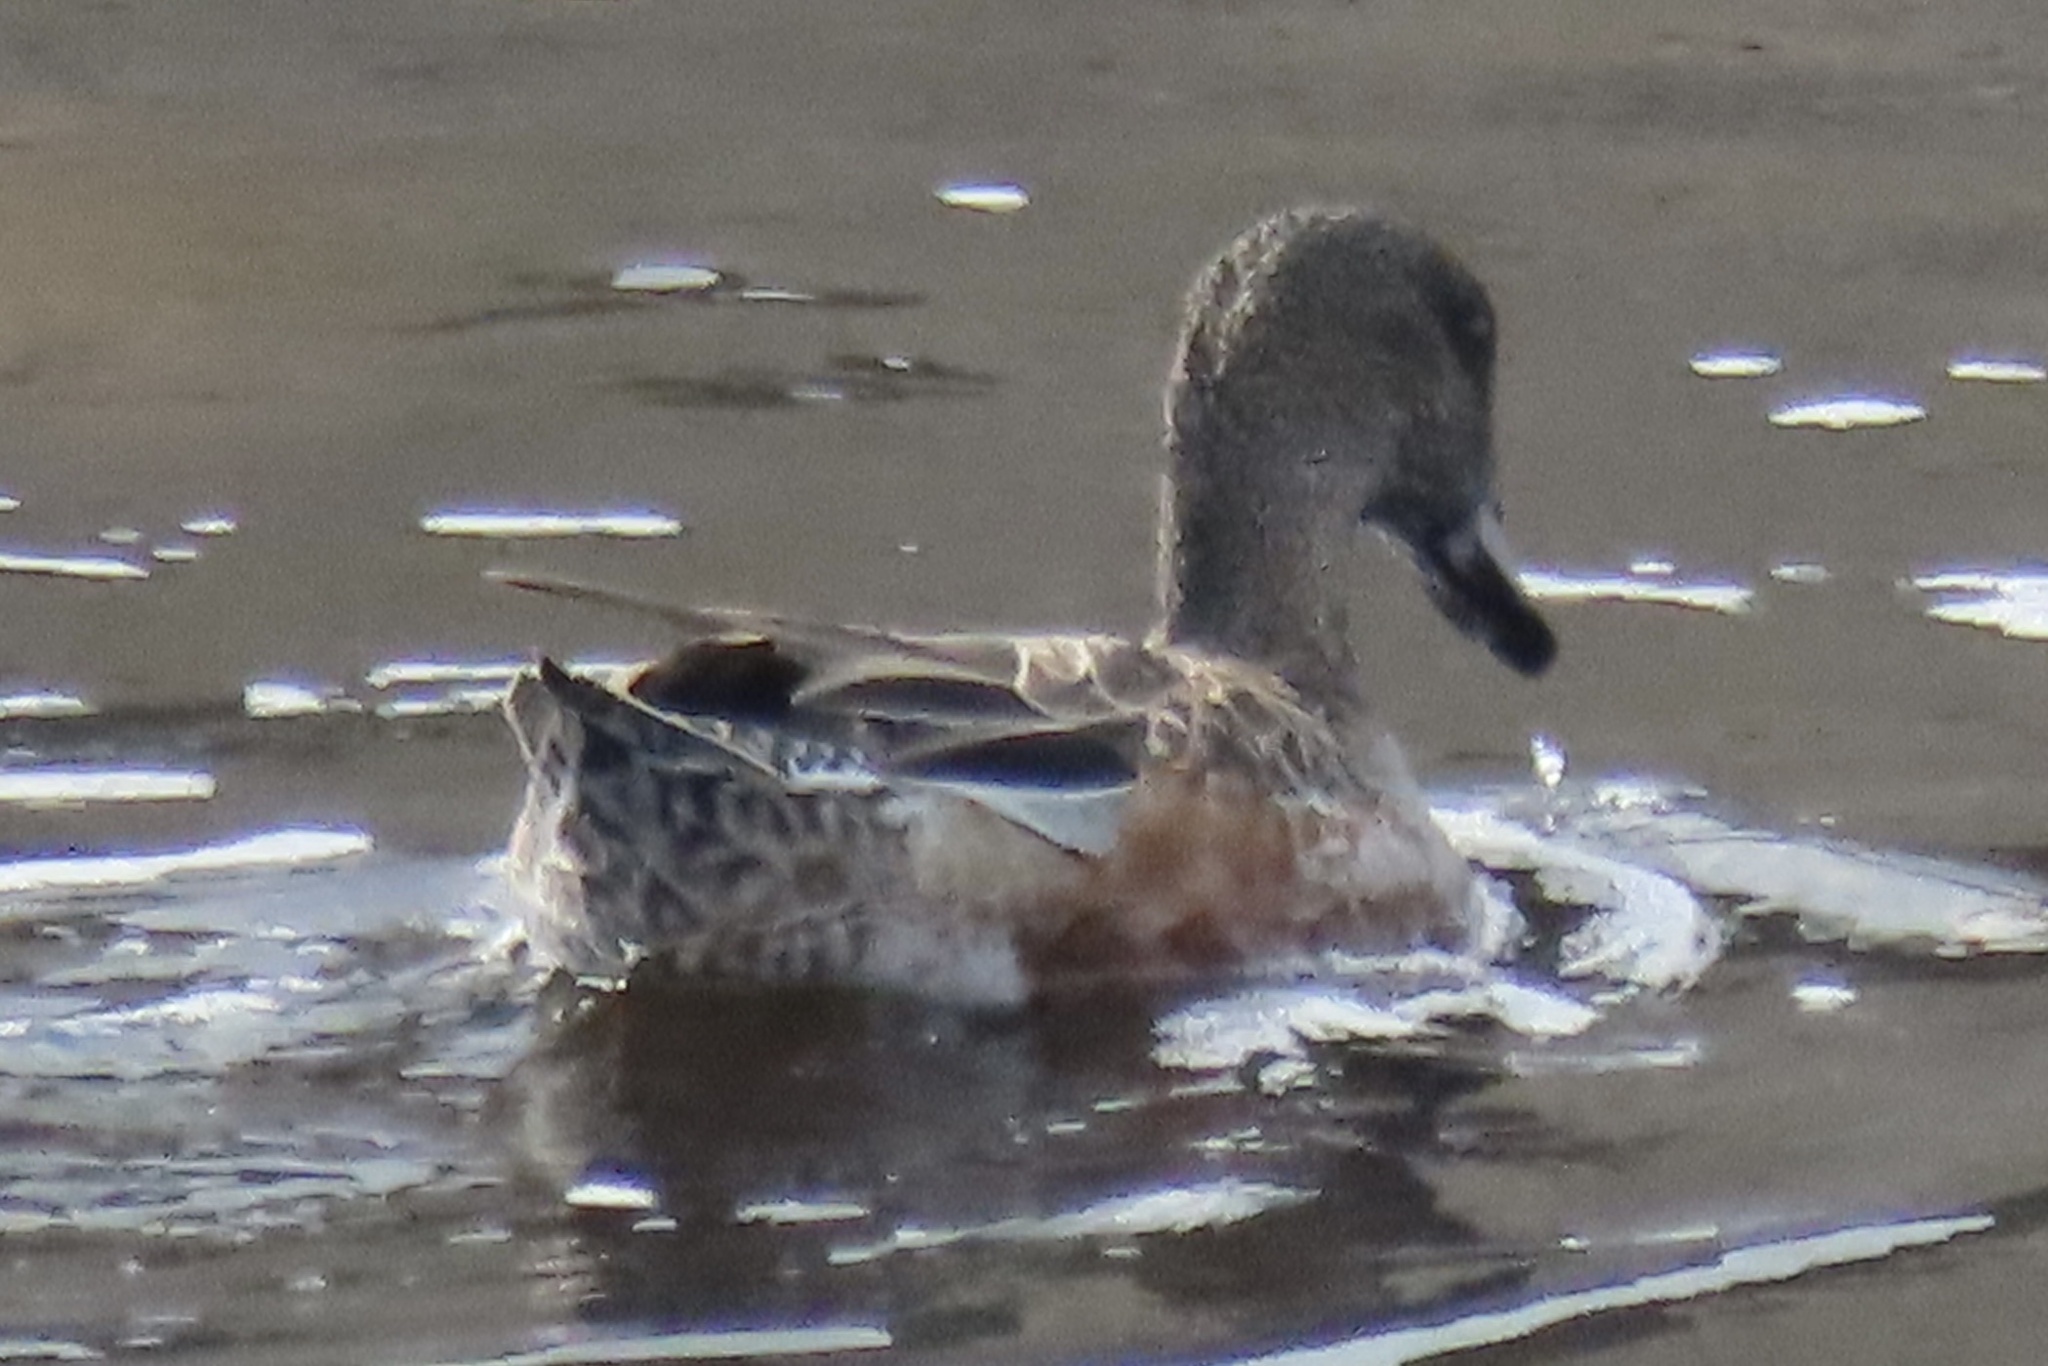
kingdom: Animalia
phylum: Chordata
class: Aves
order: Anseriformes
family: Anatidae
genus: Mareca
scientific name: Mareca americana
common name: American wigeon
